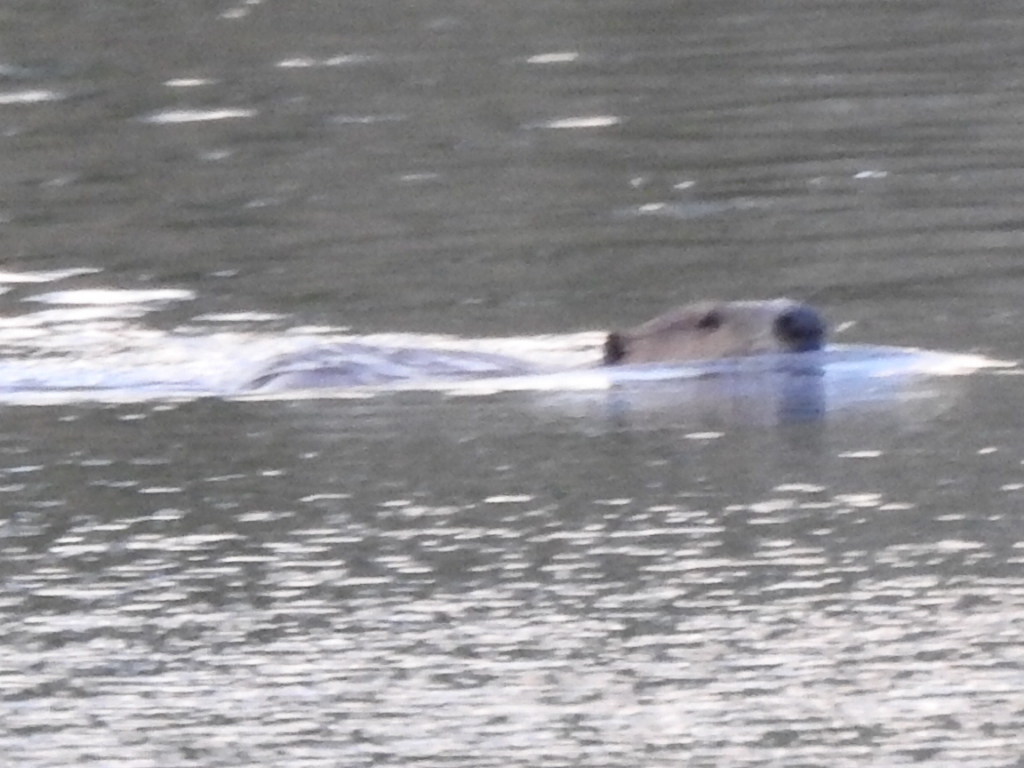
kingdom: Animalia
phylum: Chordata
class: Mammalia
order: Rodentia
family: Castoridae
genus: Castor
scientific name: Castor canadensis
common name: American beaver
